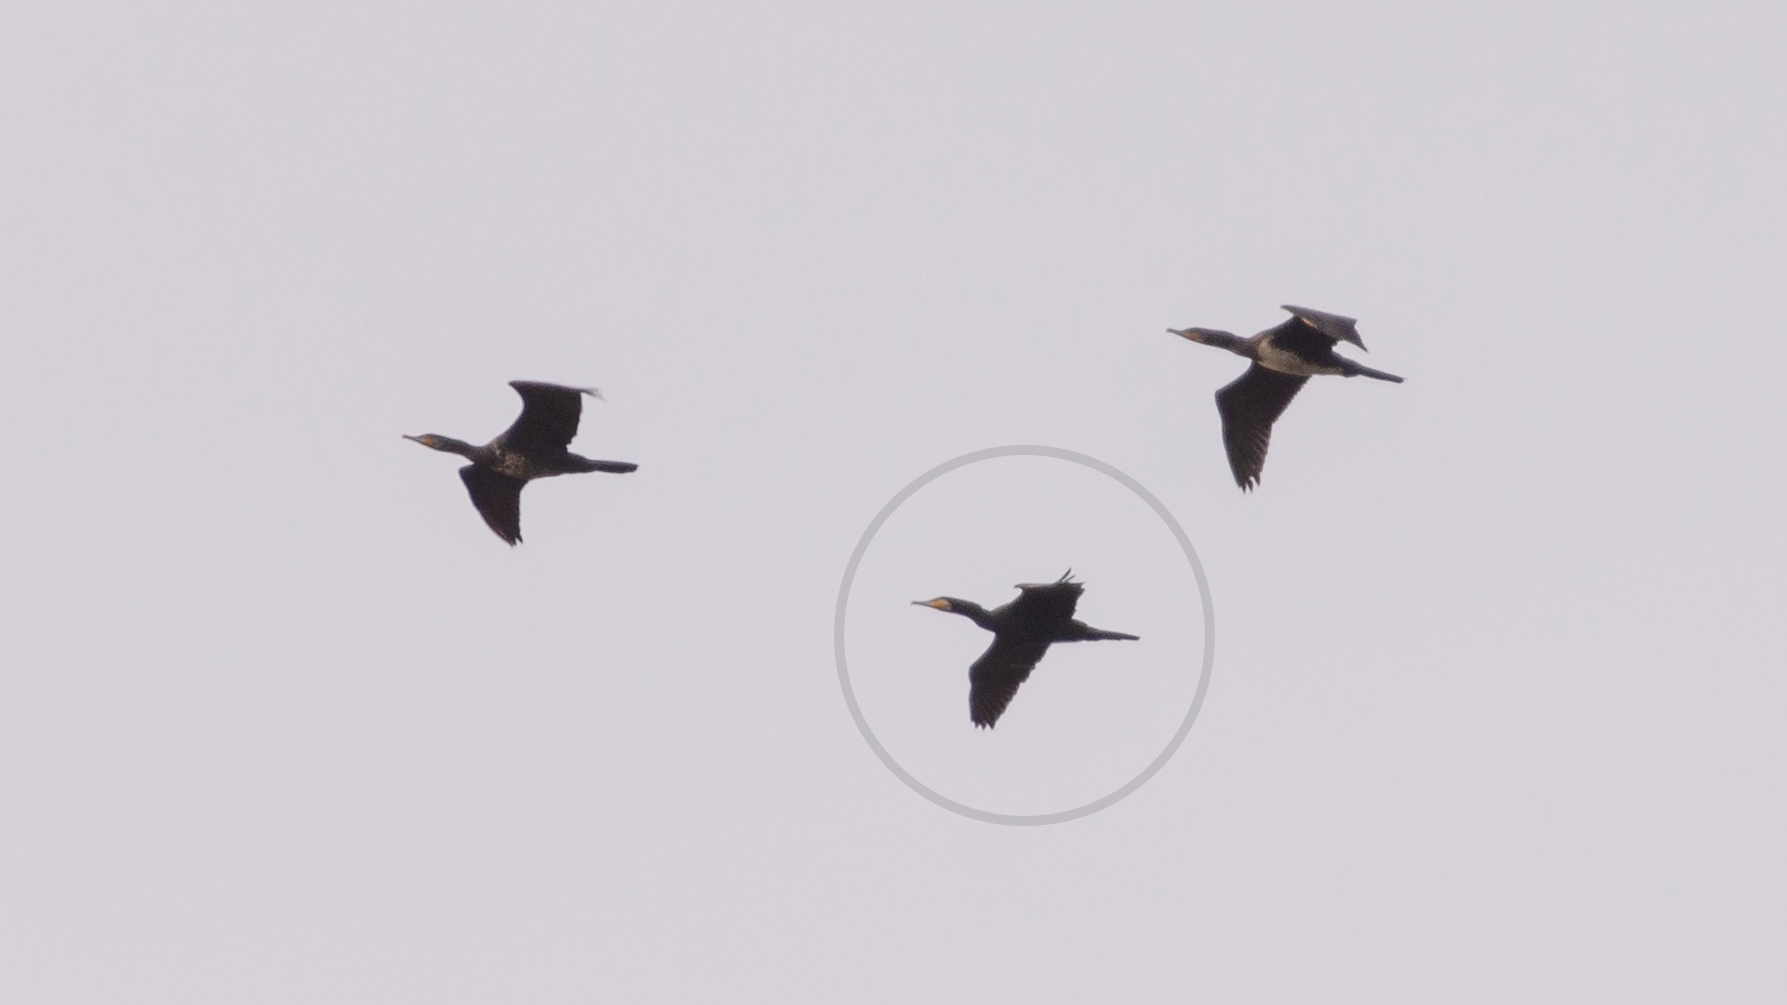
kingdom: Animalia
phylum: Chordata
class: Aves
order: Suliformes
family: Phalacrocoracidae
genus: Phalacrocorax
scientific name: Phalacrocorax carbo
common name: Great cormorant
